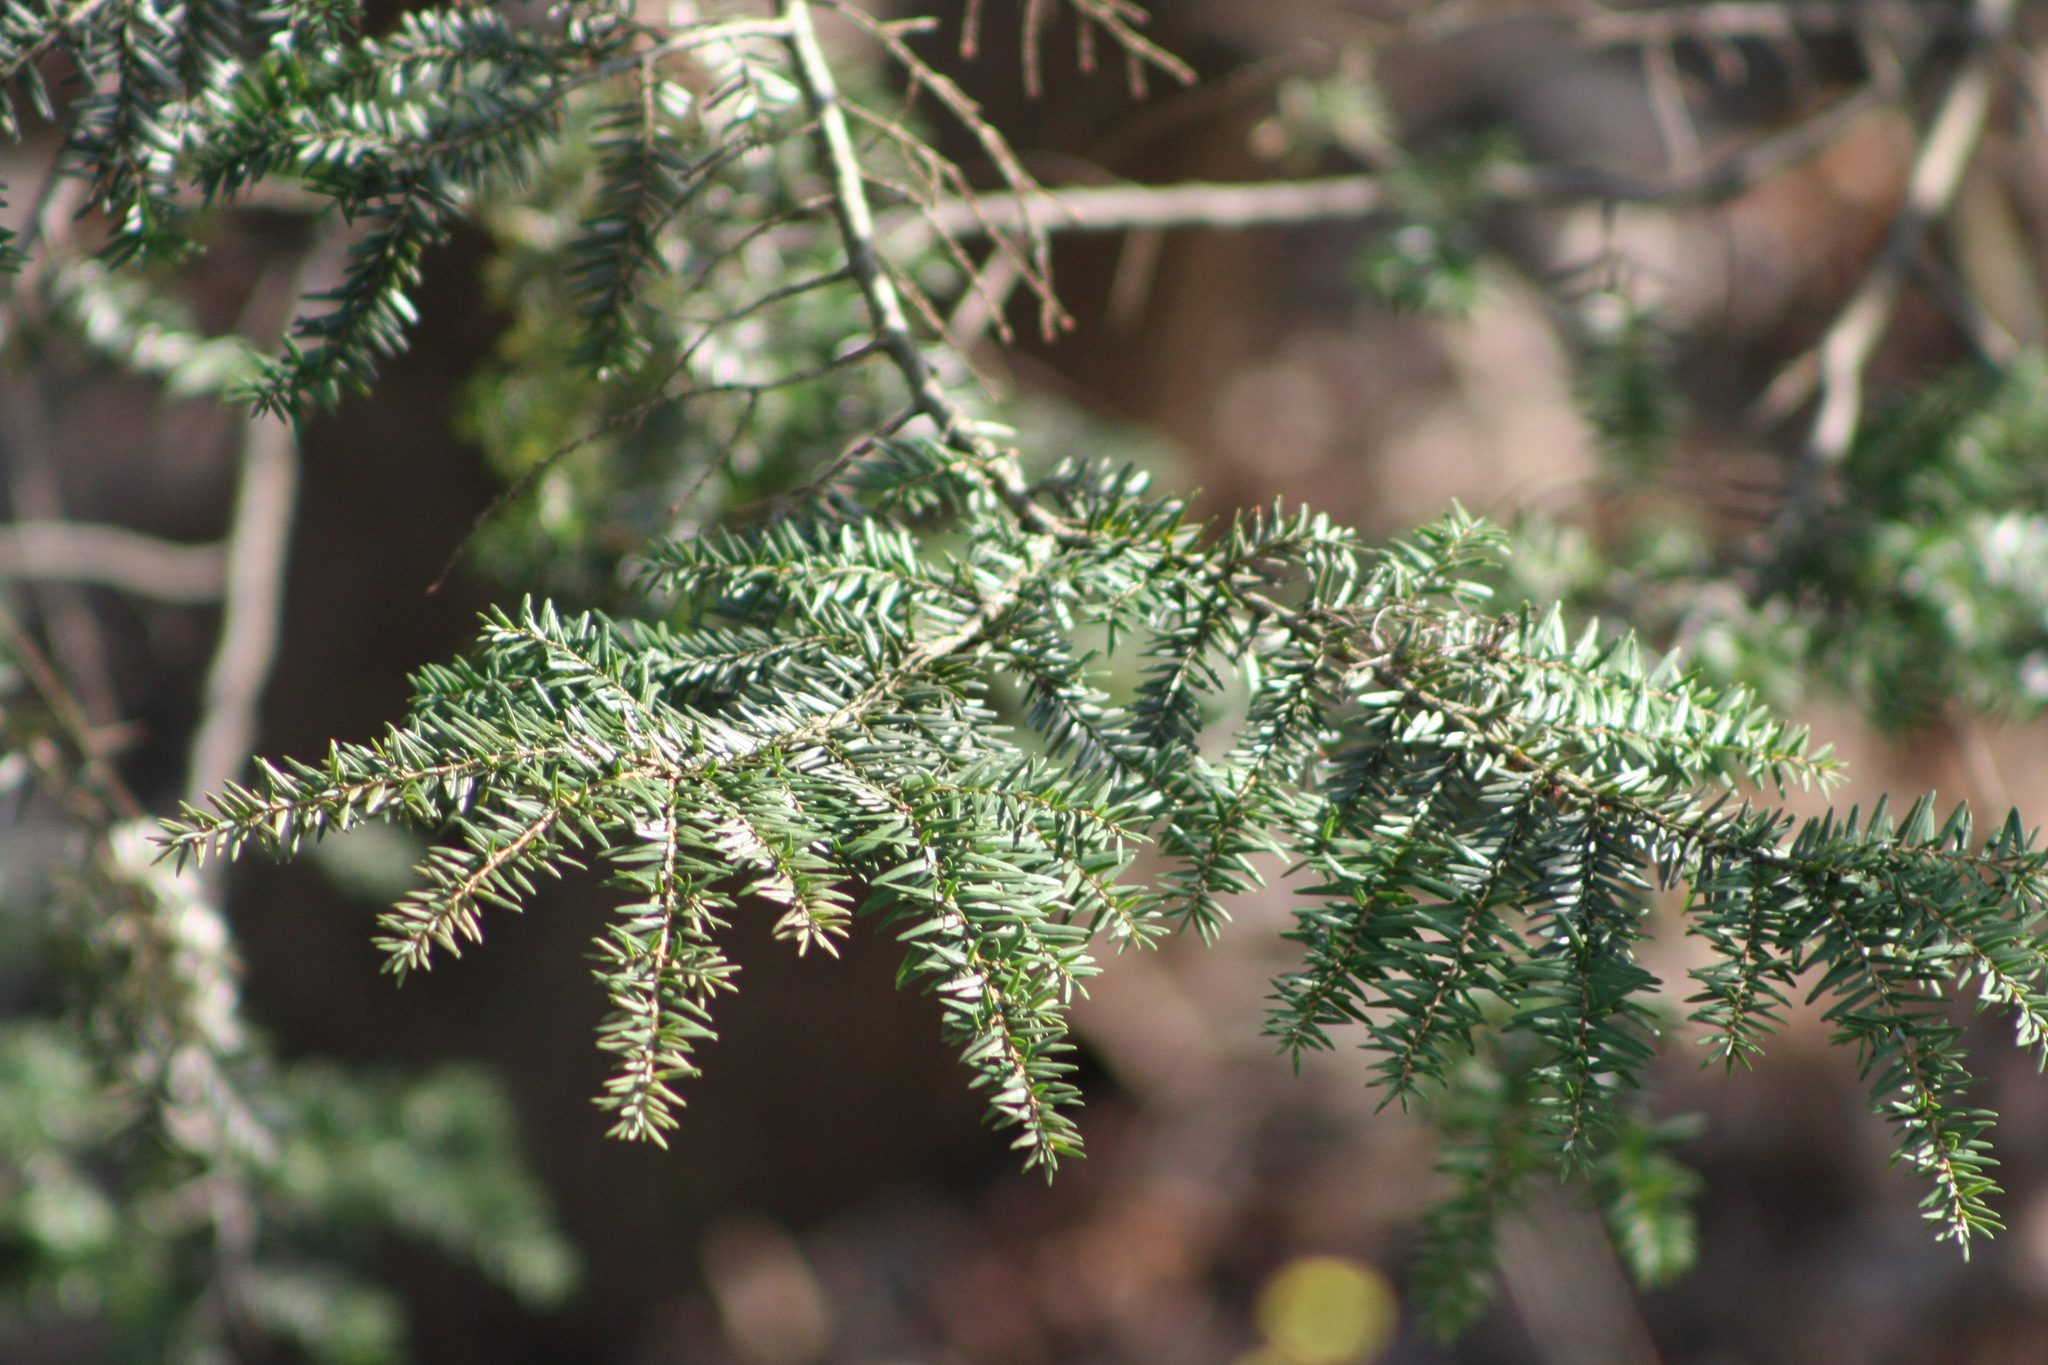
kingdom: Plantae
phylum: Tracheophyta
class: Pinopsida
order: Pinales
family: Pinaceae
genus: Tsuga
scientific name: Tsuga canadensis
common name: Eastern hemlock
